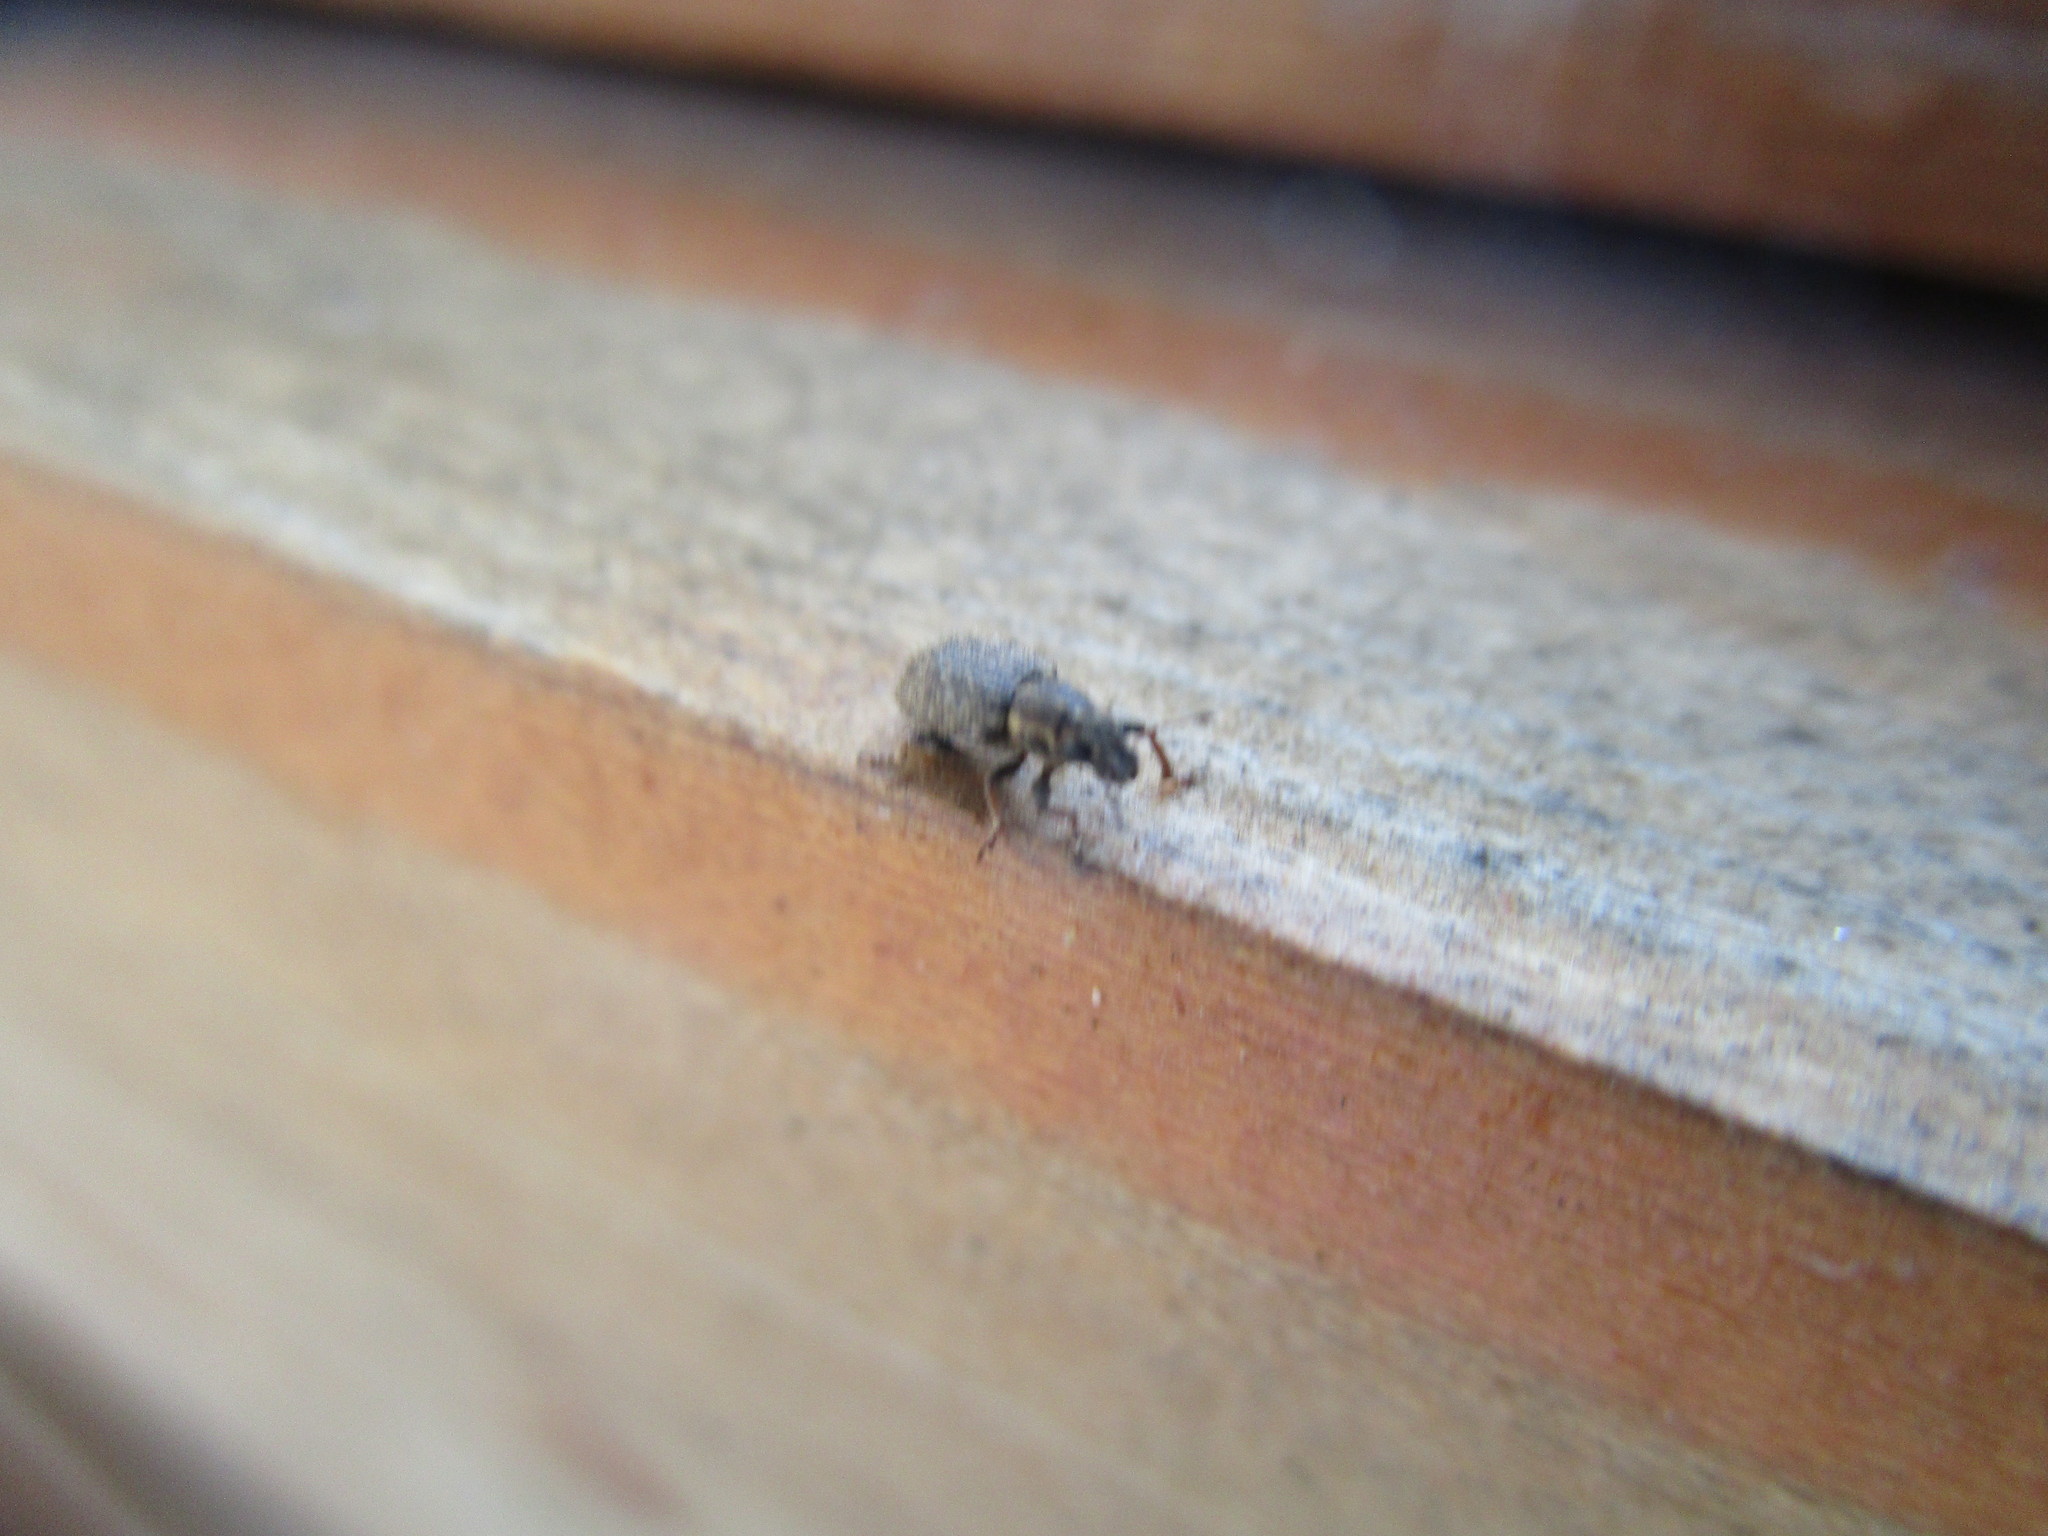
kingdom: Animalia
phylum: Arthropoda
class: Insecta
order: Coleoptera
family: Curculionidae
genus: Sitona
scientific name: Sitona hispidulus
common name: Clover weevil
